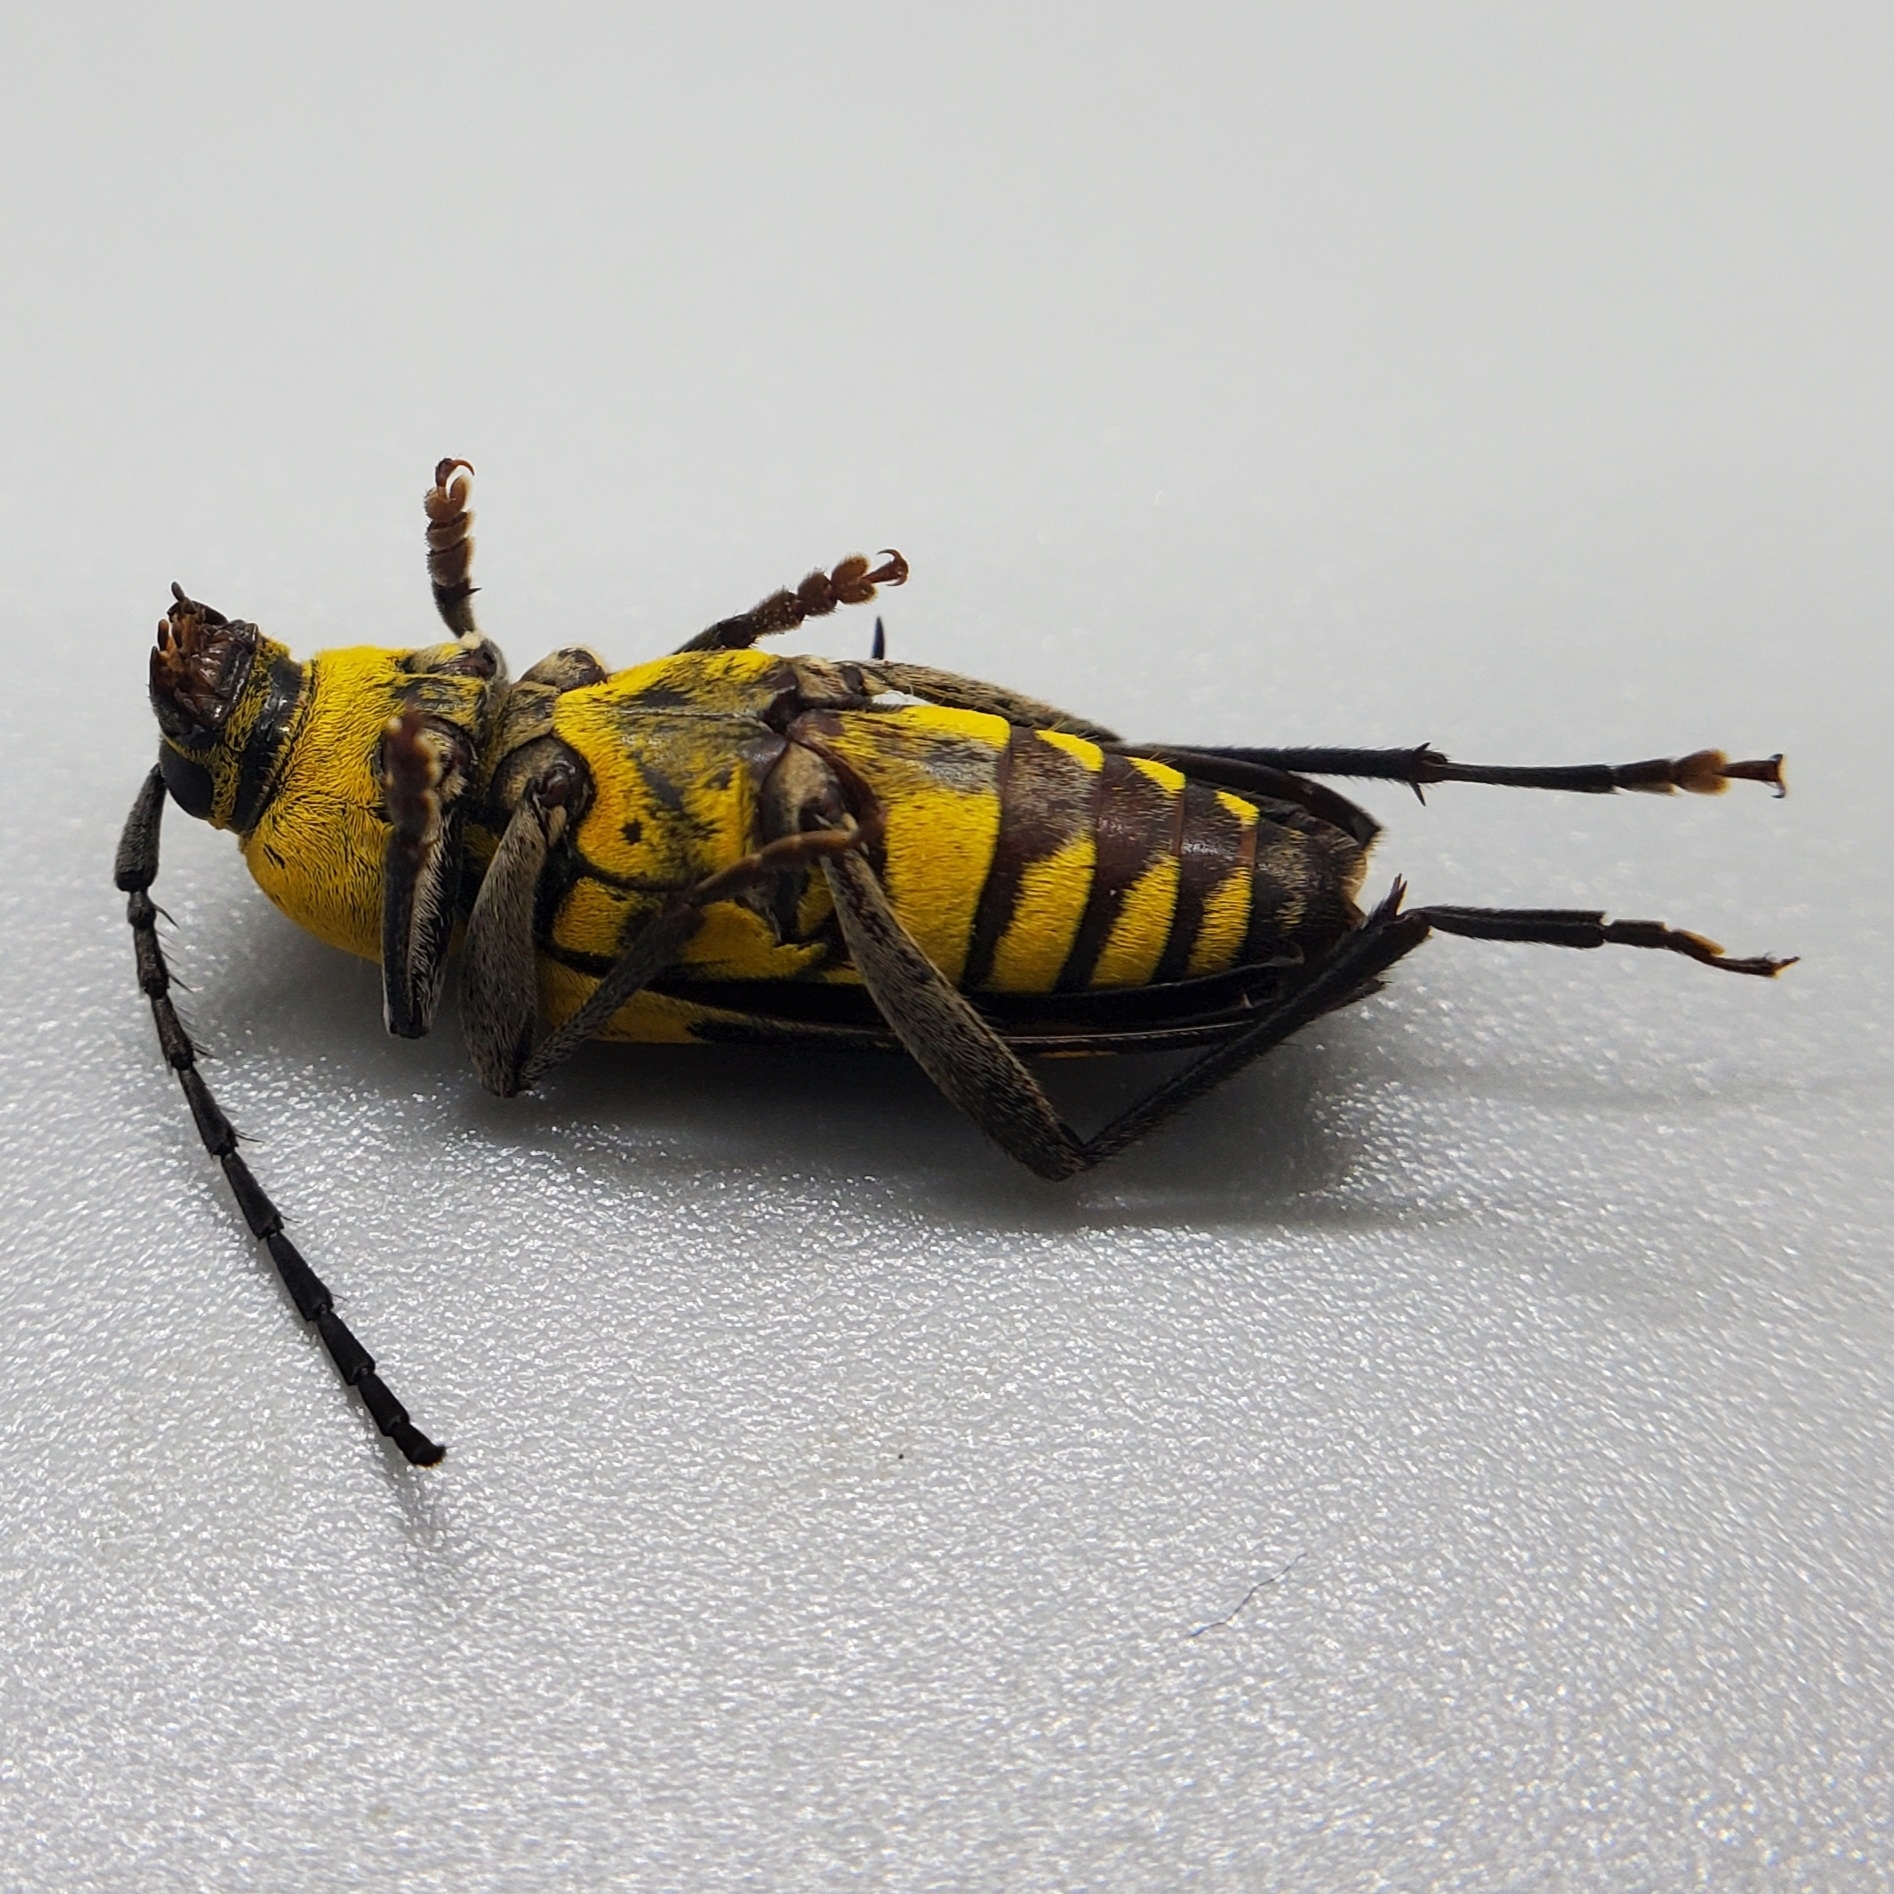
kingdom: Animalia
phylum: Arthropoda
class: Insecta
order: Coleoptera
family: Cerambycidae
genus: Megacyllene
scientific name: Megacyllene decora
